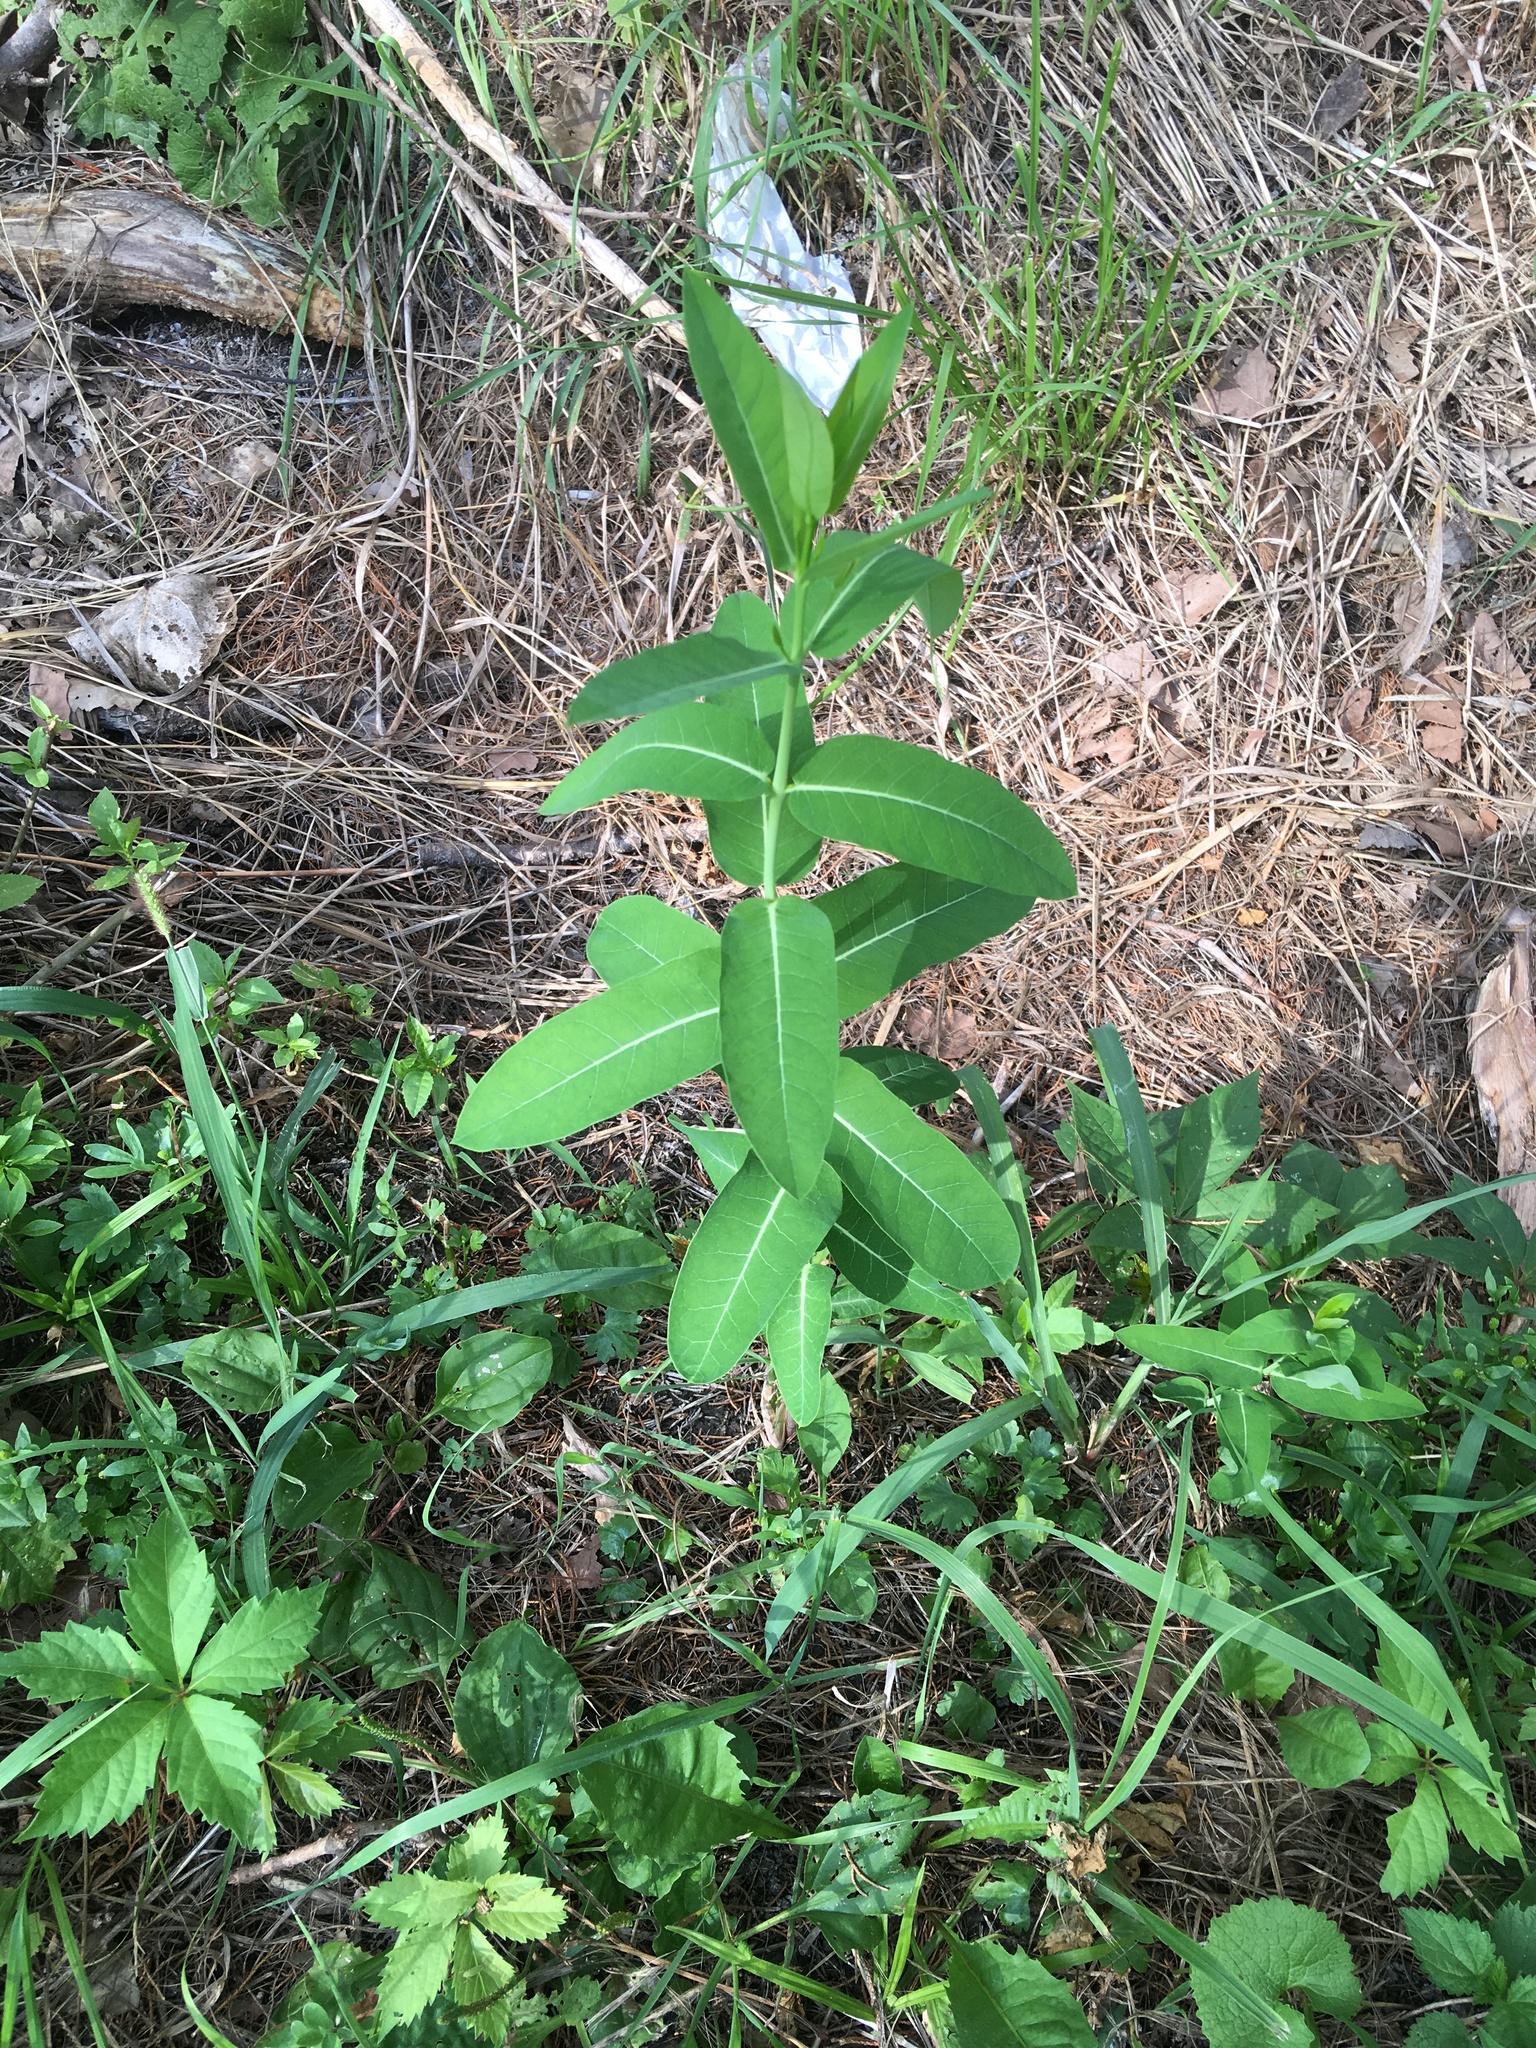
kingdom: Plantae
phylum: Tracheophyta
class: Magnoliopsida
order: Gentianales
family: Apocynaceae
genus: Apocynum
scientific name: Apocynum cannabinum
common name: Hemp dogbane
